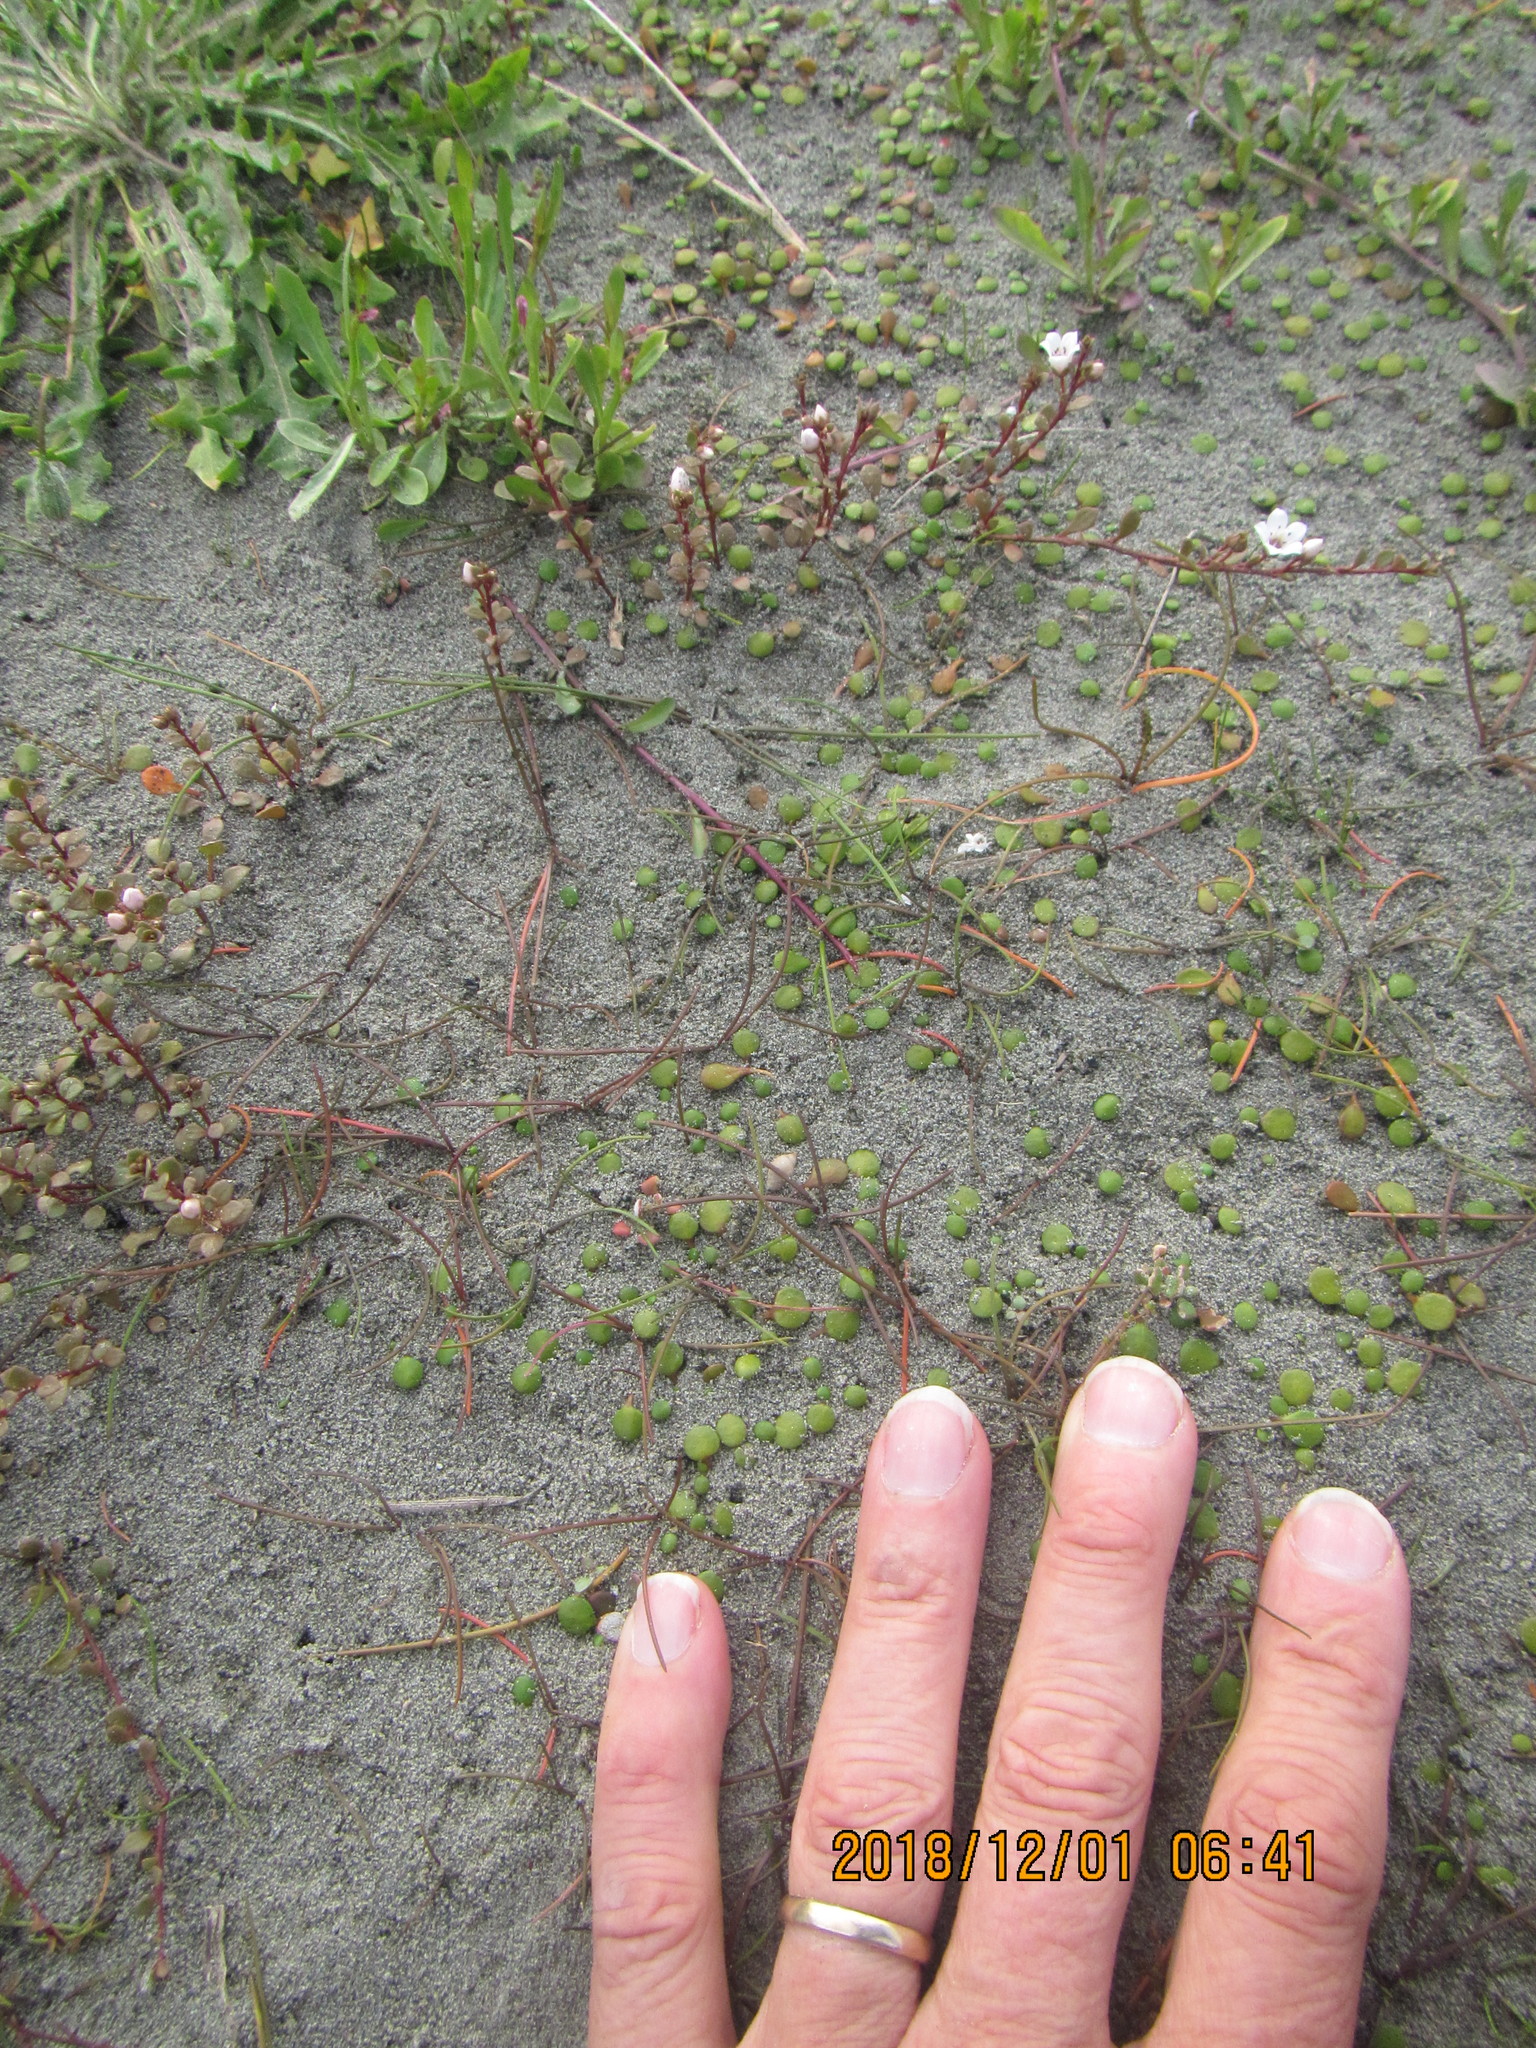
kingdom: Plantae
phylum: Tracheophyta
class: Magnoliopsida
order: Asterales
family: Goodeniaceae
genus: Goodenia
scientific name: Goodenia heenanii
